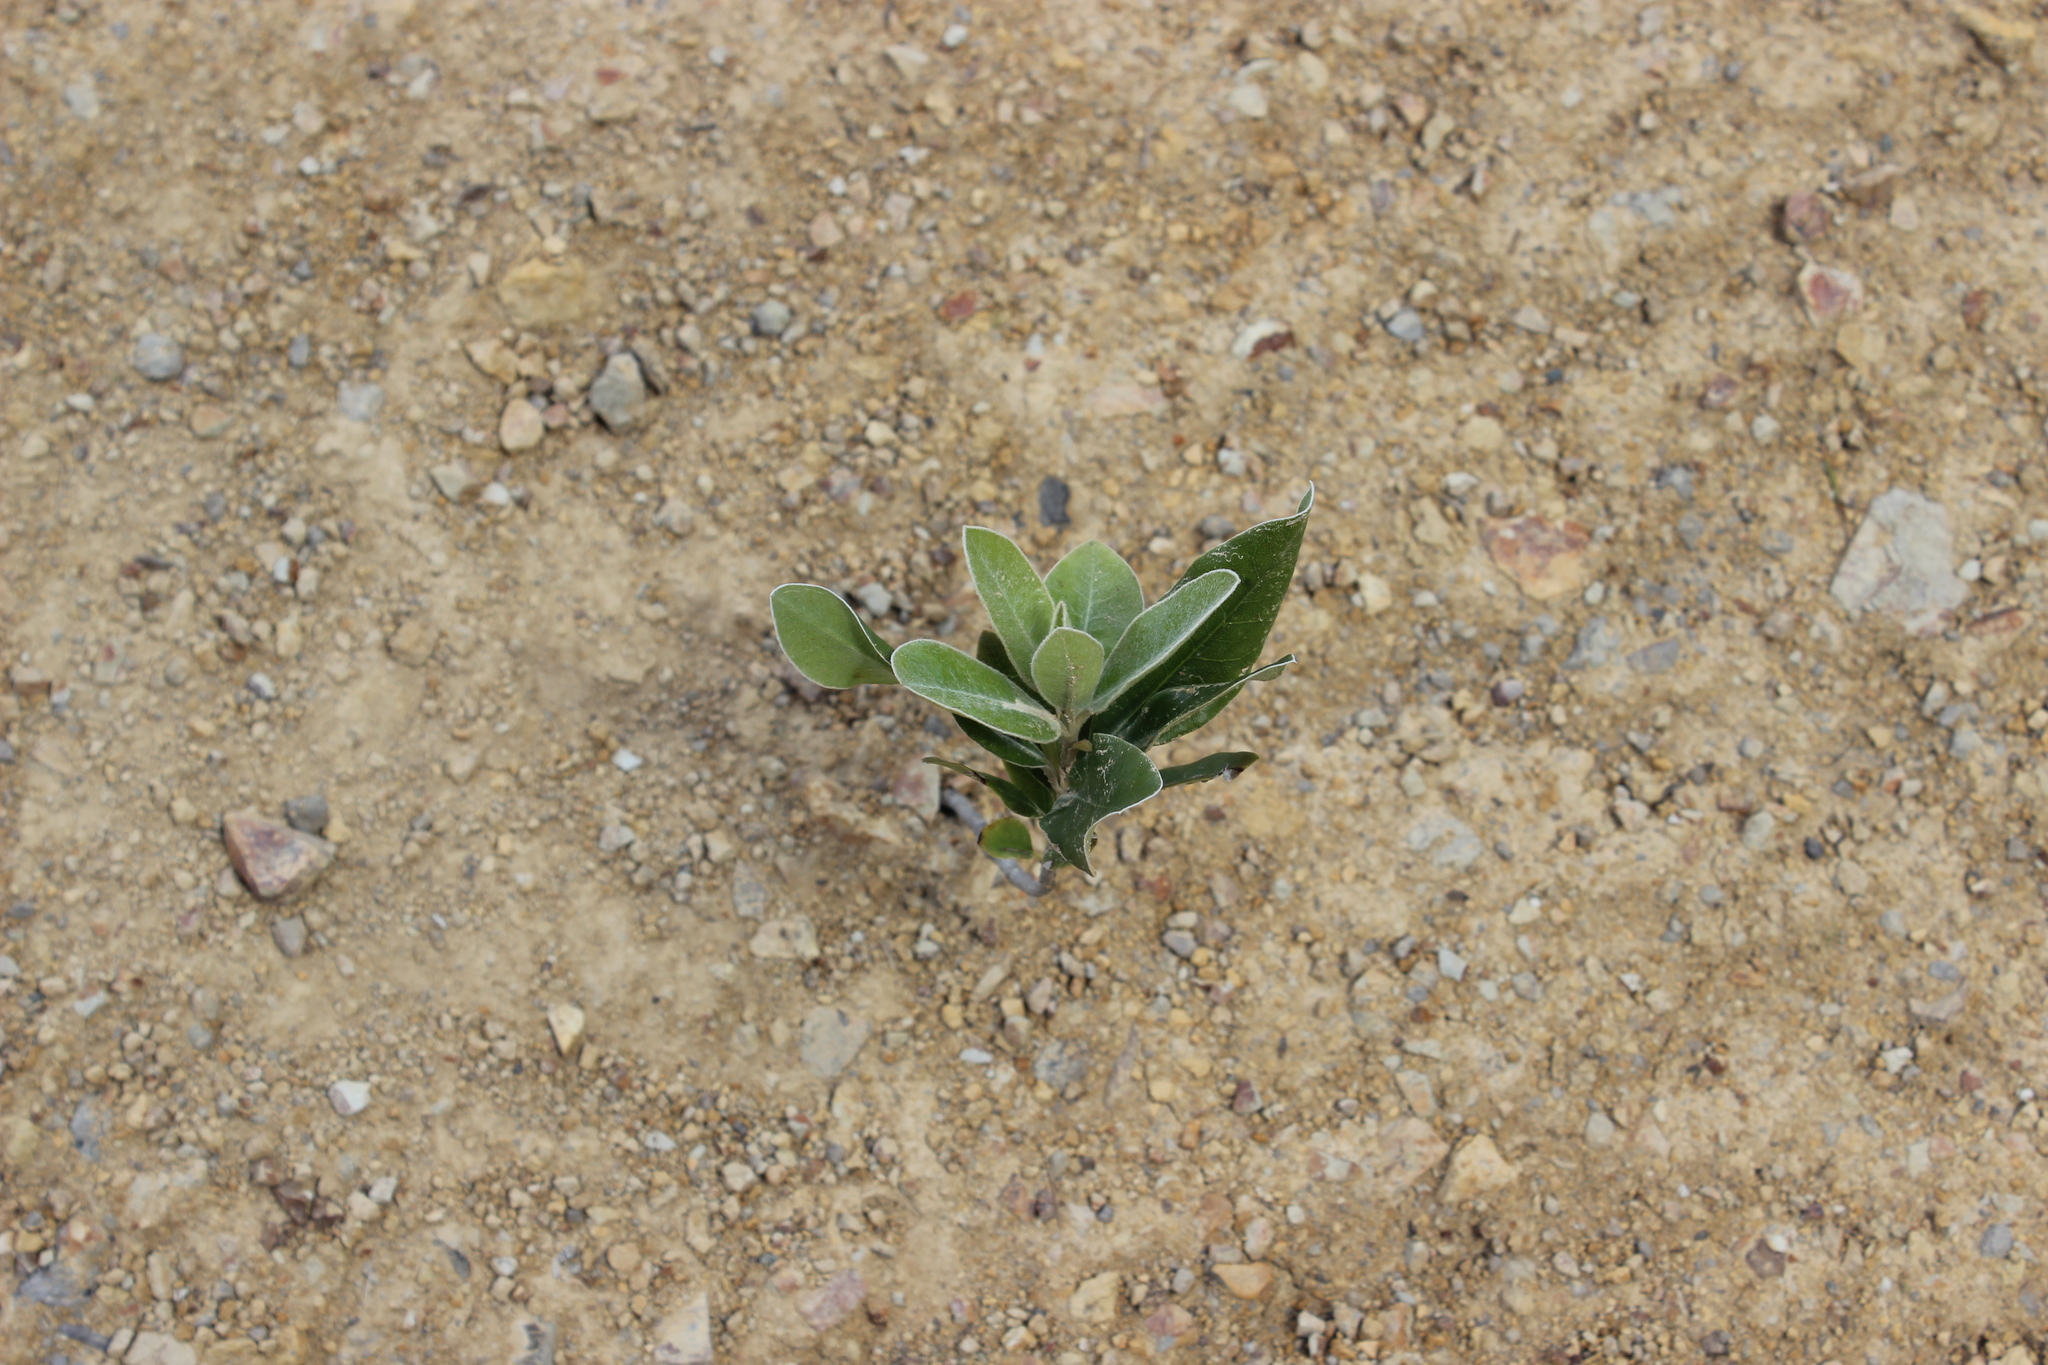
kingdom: Plantae
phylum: Tracheophyta
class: Magnoliopsida
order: Apiales
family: Pittosporaceae
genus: Pittosporum
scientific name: Pittosporum crassifolium
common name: Karo
